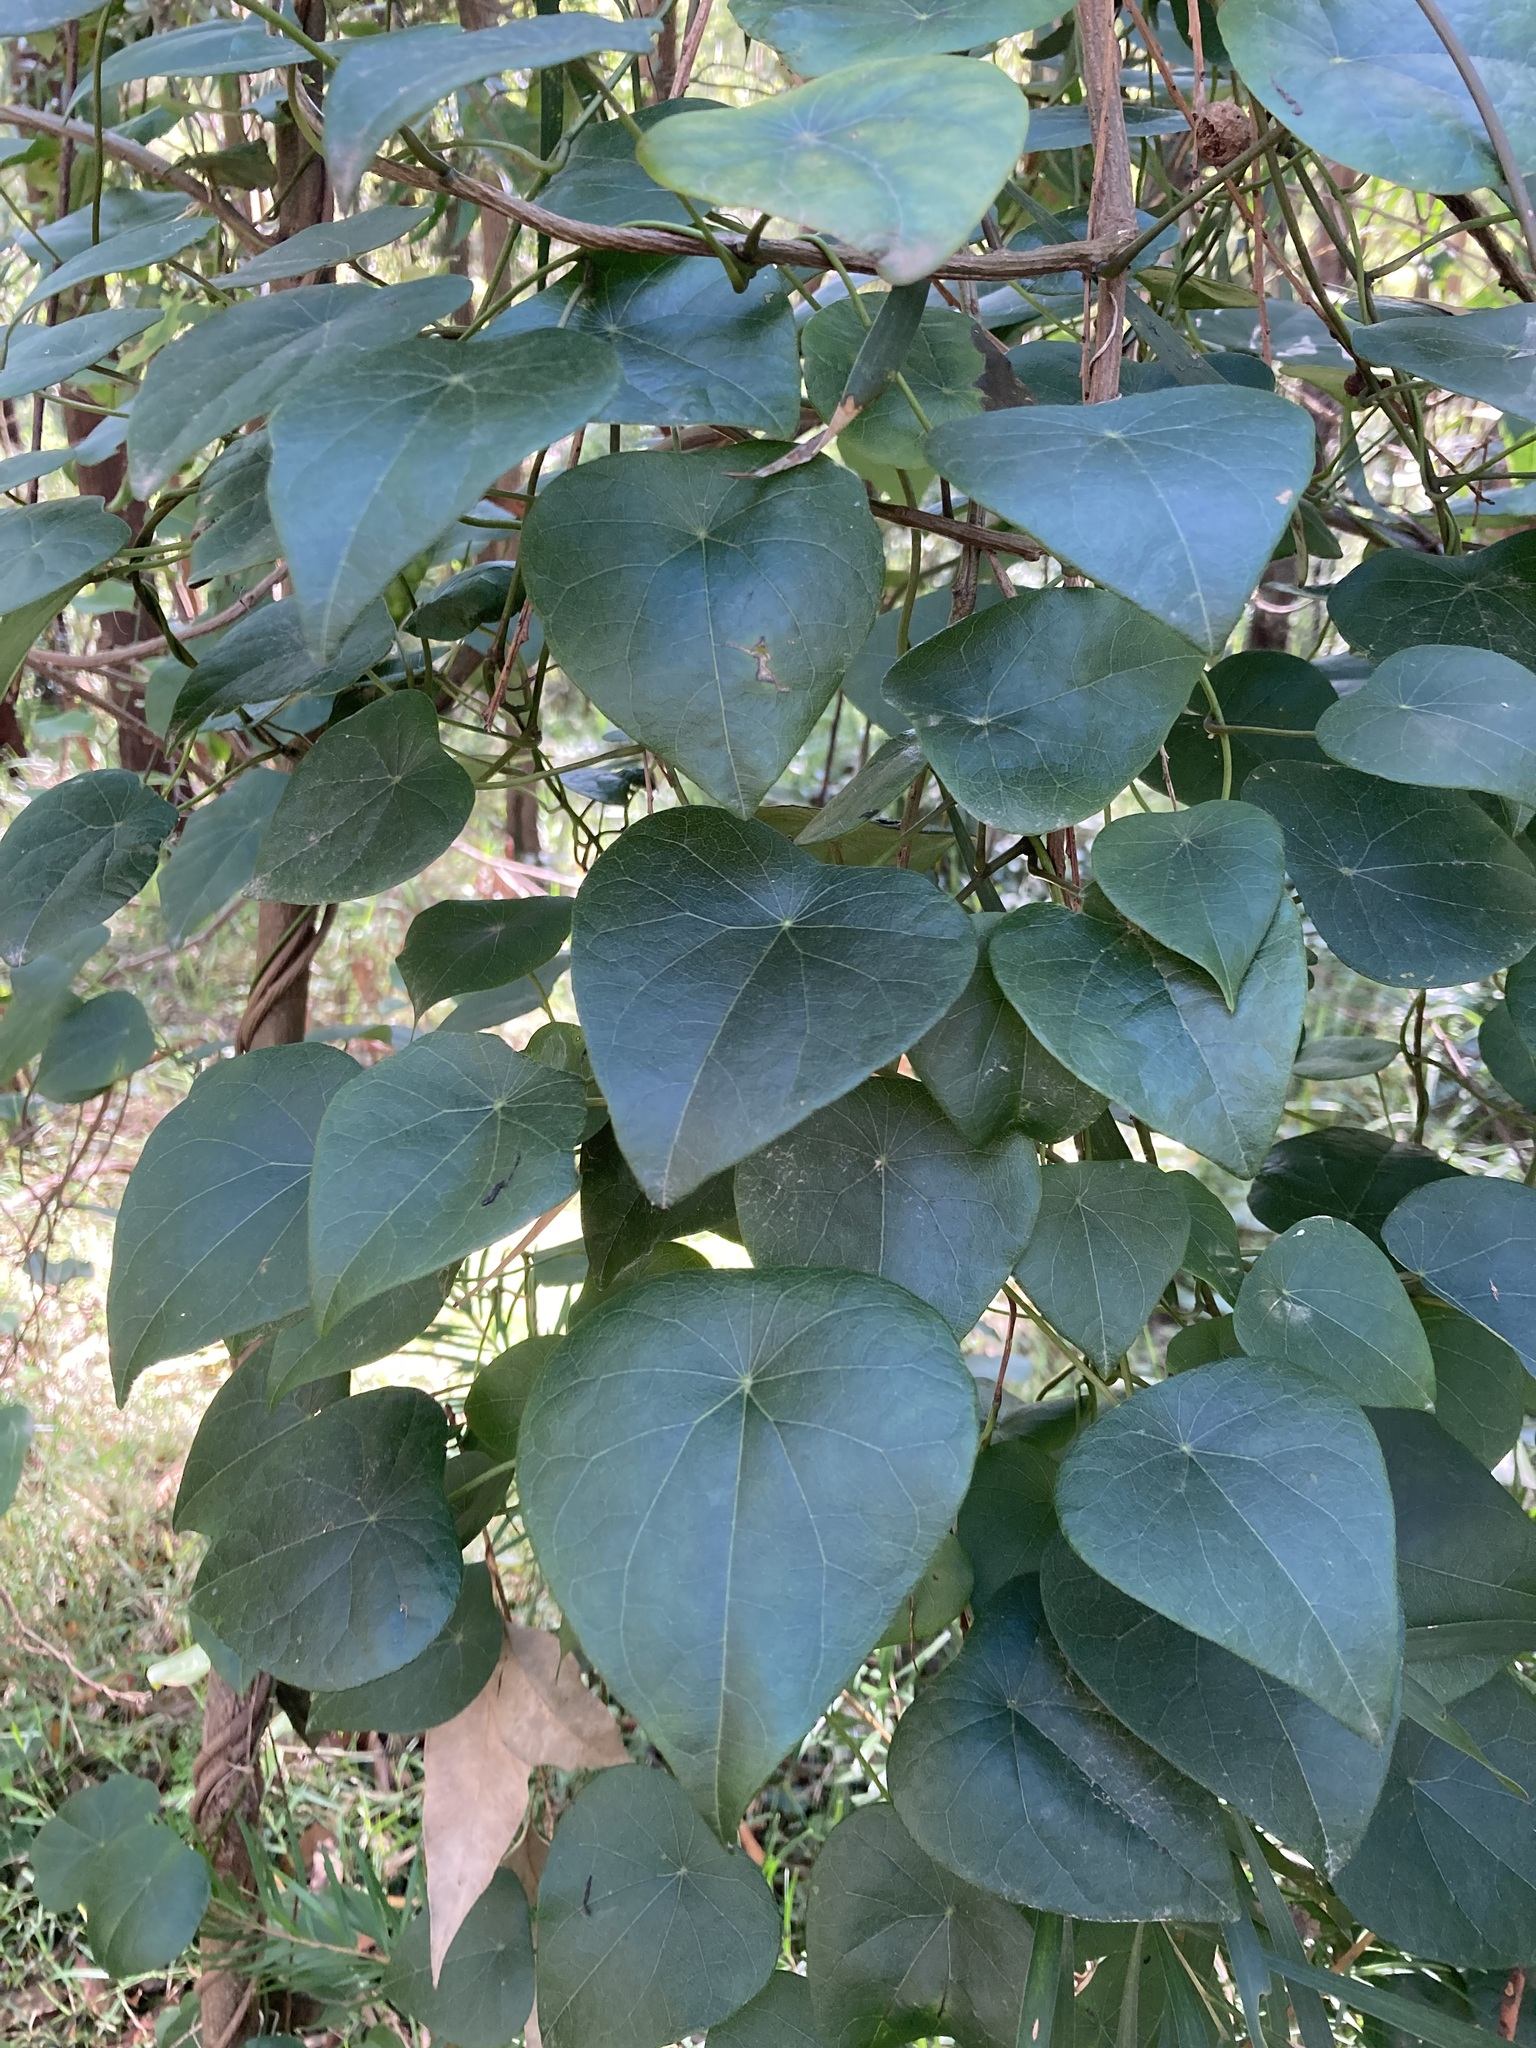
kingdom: Plantae
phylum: Tracheophyta
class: Magnoliopsida
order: Ranunculales
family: Menispermaceae
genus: Stephania
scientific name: Stephania japonica
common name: Snake vine
